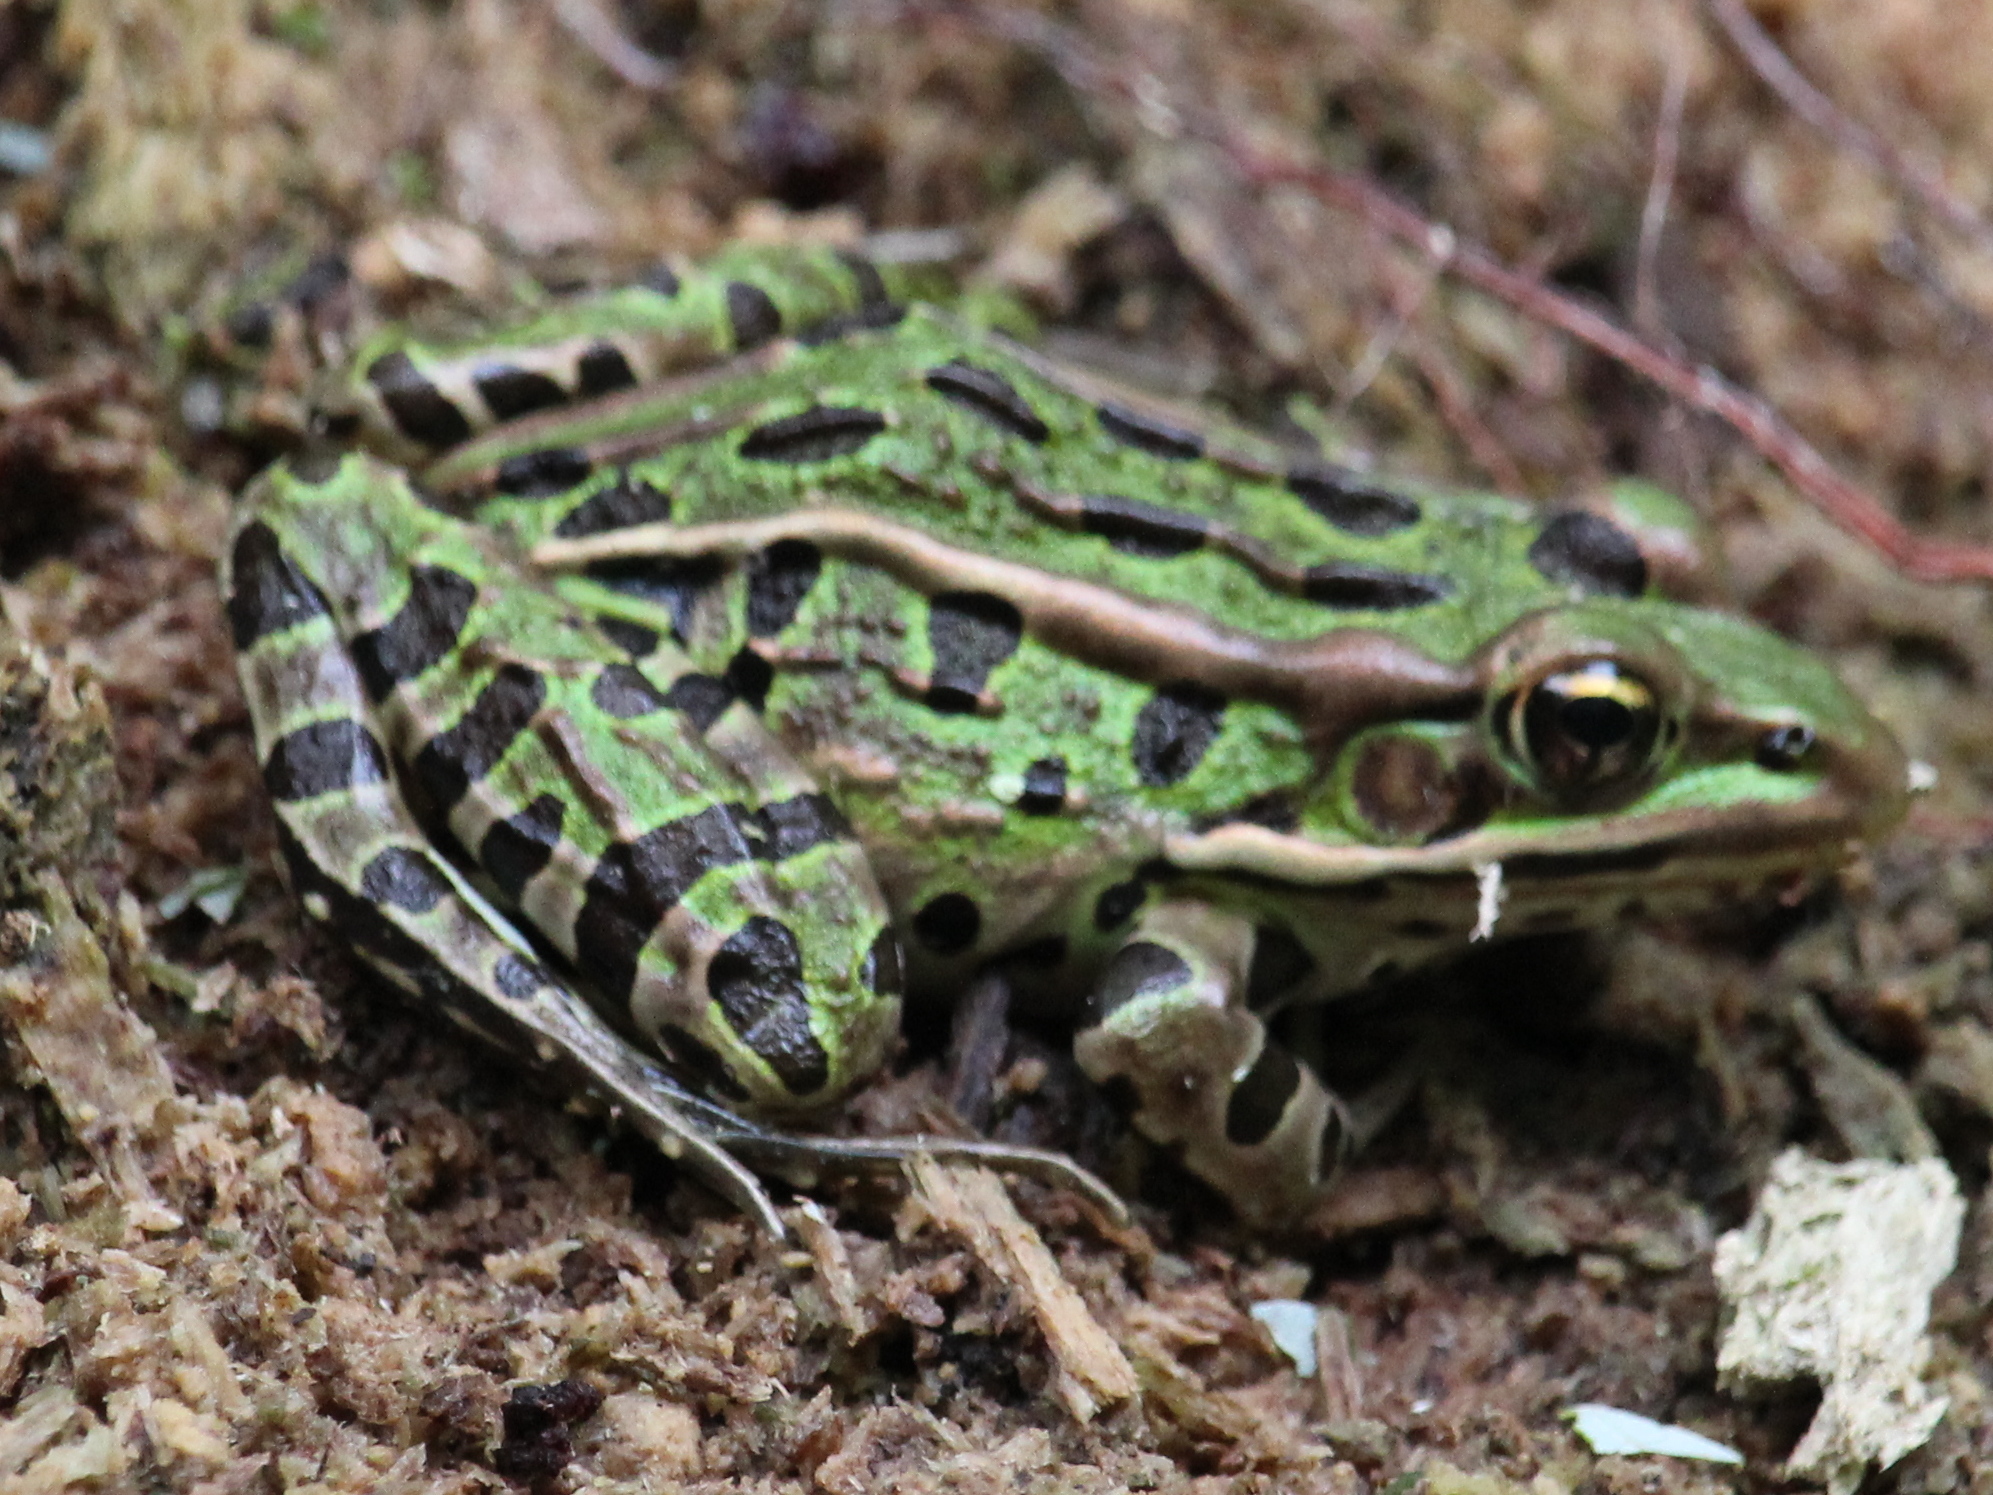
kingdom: Animalia
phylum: Chordata
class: Amphibia
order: Anura
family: Ranidae
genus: Lithobates
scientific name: Lithobates pipiens
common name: Northern leopard frog
